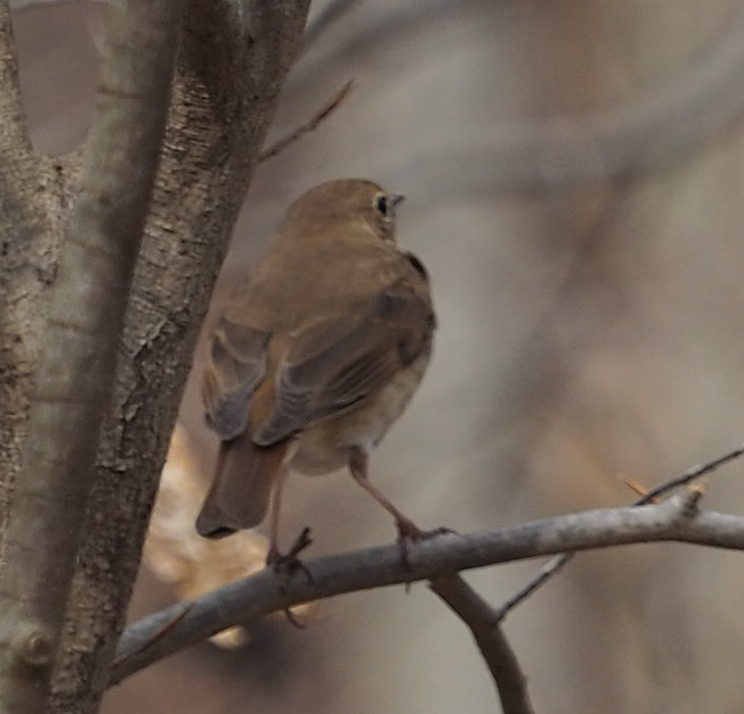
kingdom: Animalia
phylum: Chordata
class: Aves
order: Passeriformes
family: Turdidae
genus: Catharus
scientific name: Catharus guttatus
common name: Hermit thrush
